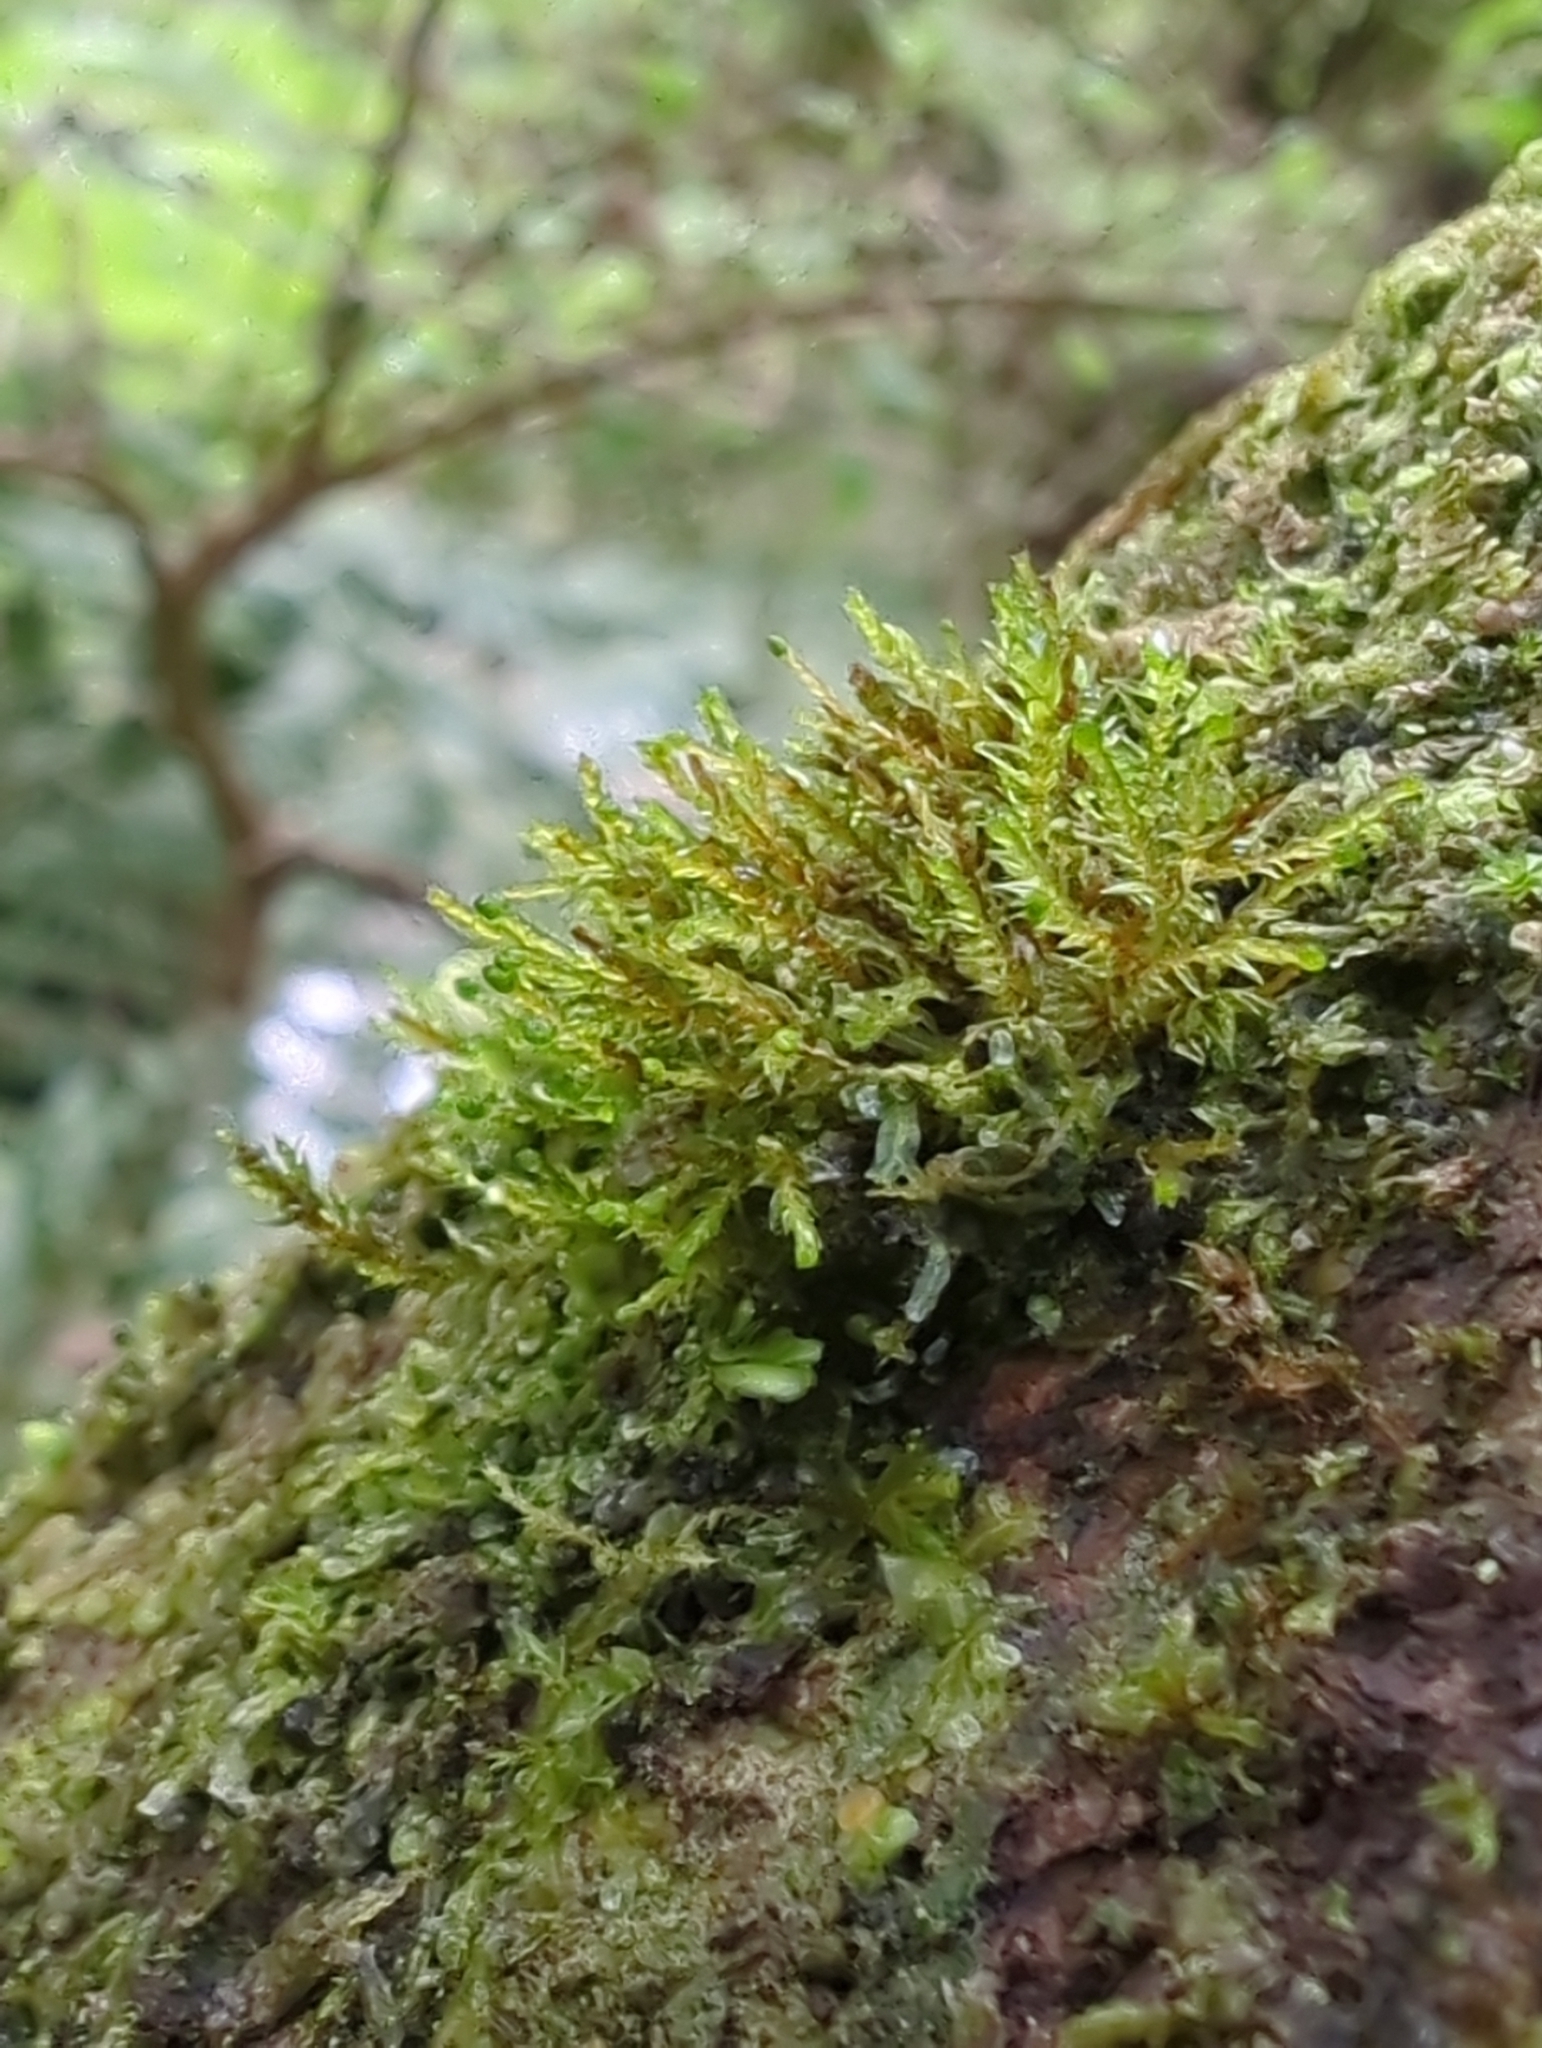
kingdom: Plantae
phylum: Bryophyta
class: Bryopsida
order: Ptychomniales
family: Ptychomniaceae
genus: Tetraphidopsis
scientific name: Tetraphidopsis pusilla
